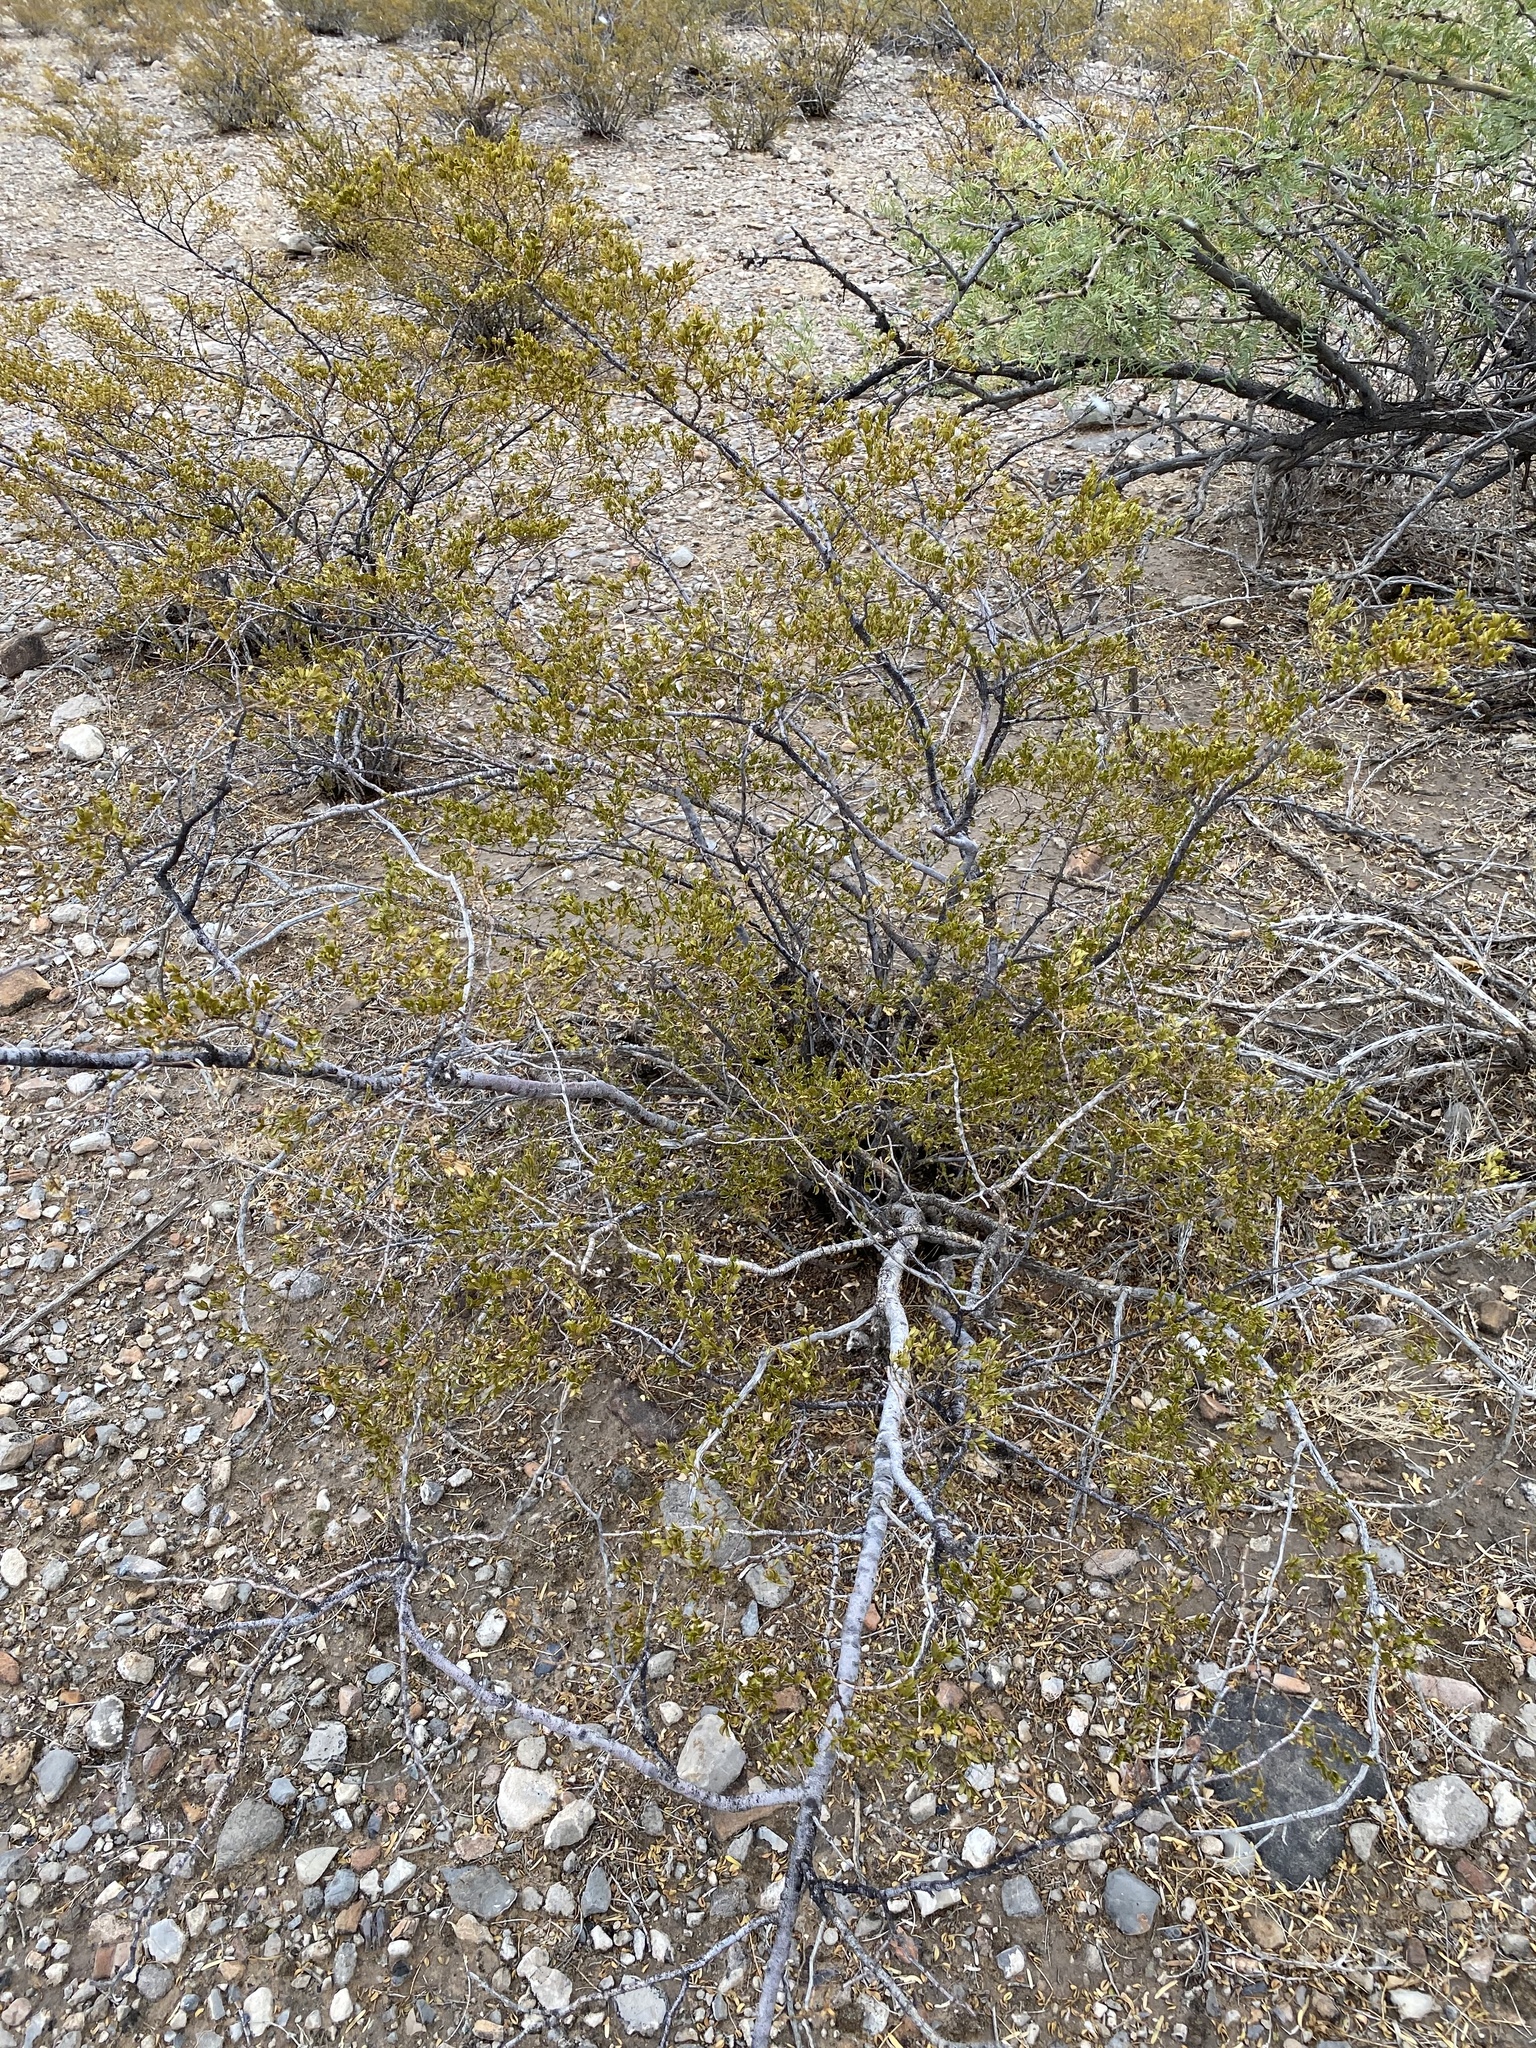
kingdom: Plantae
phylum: Tracheophyta
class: Magnoliopsida
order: Zygophyllales
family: Zygophyllaceae
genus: Larrea
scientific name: Larrea tridentata
